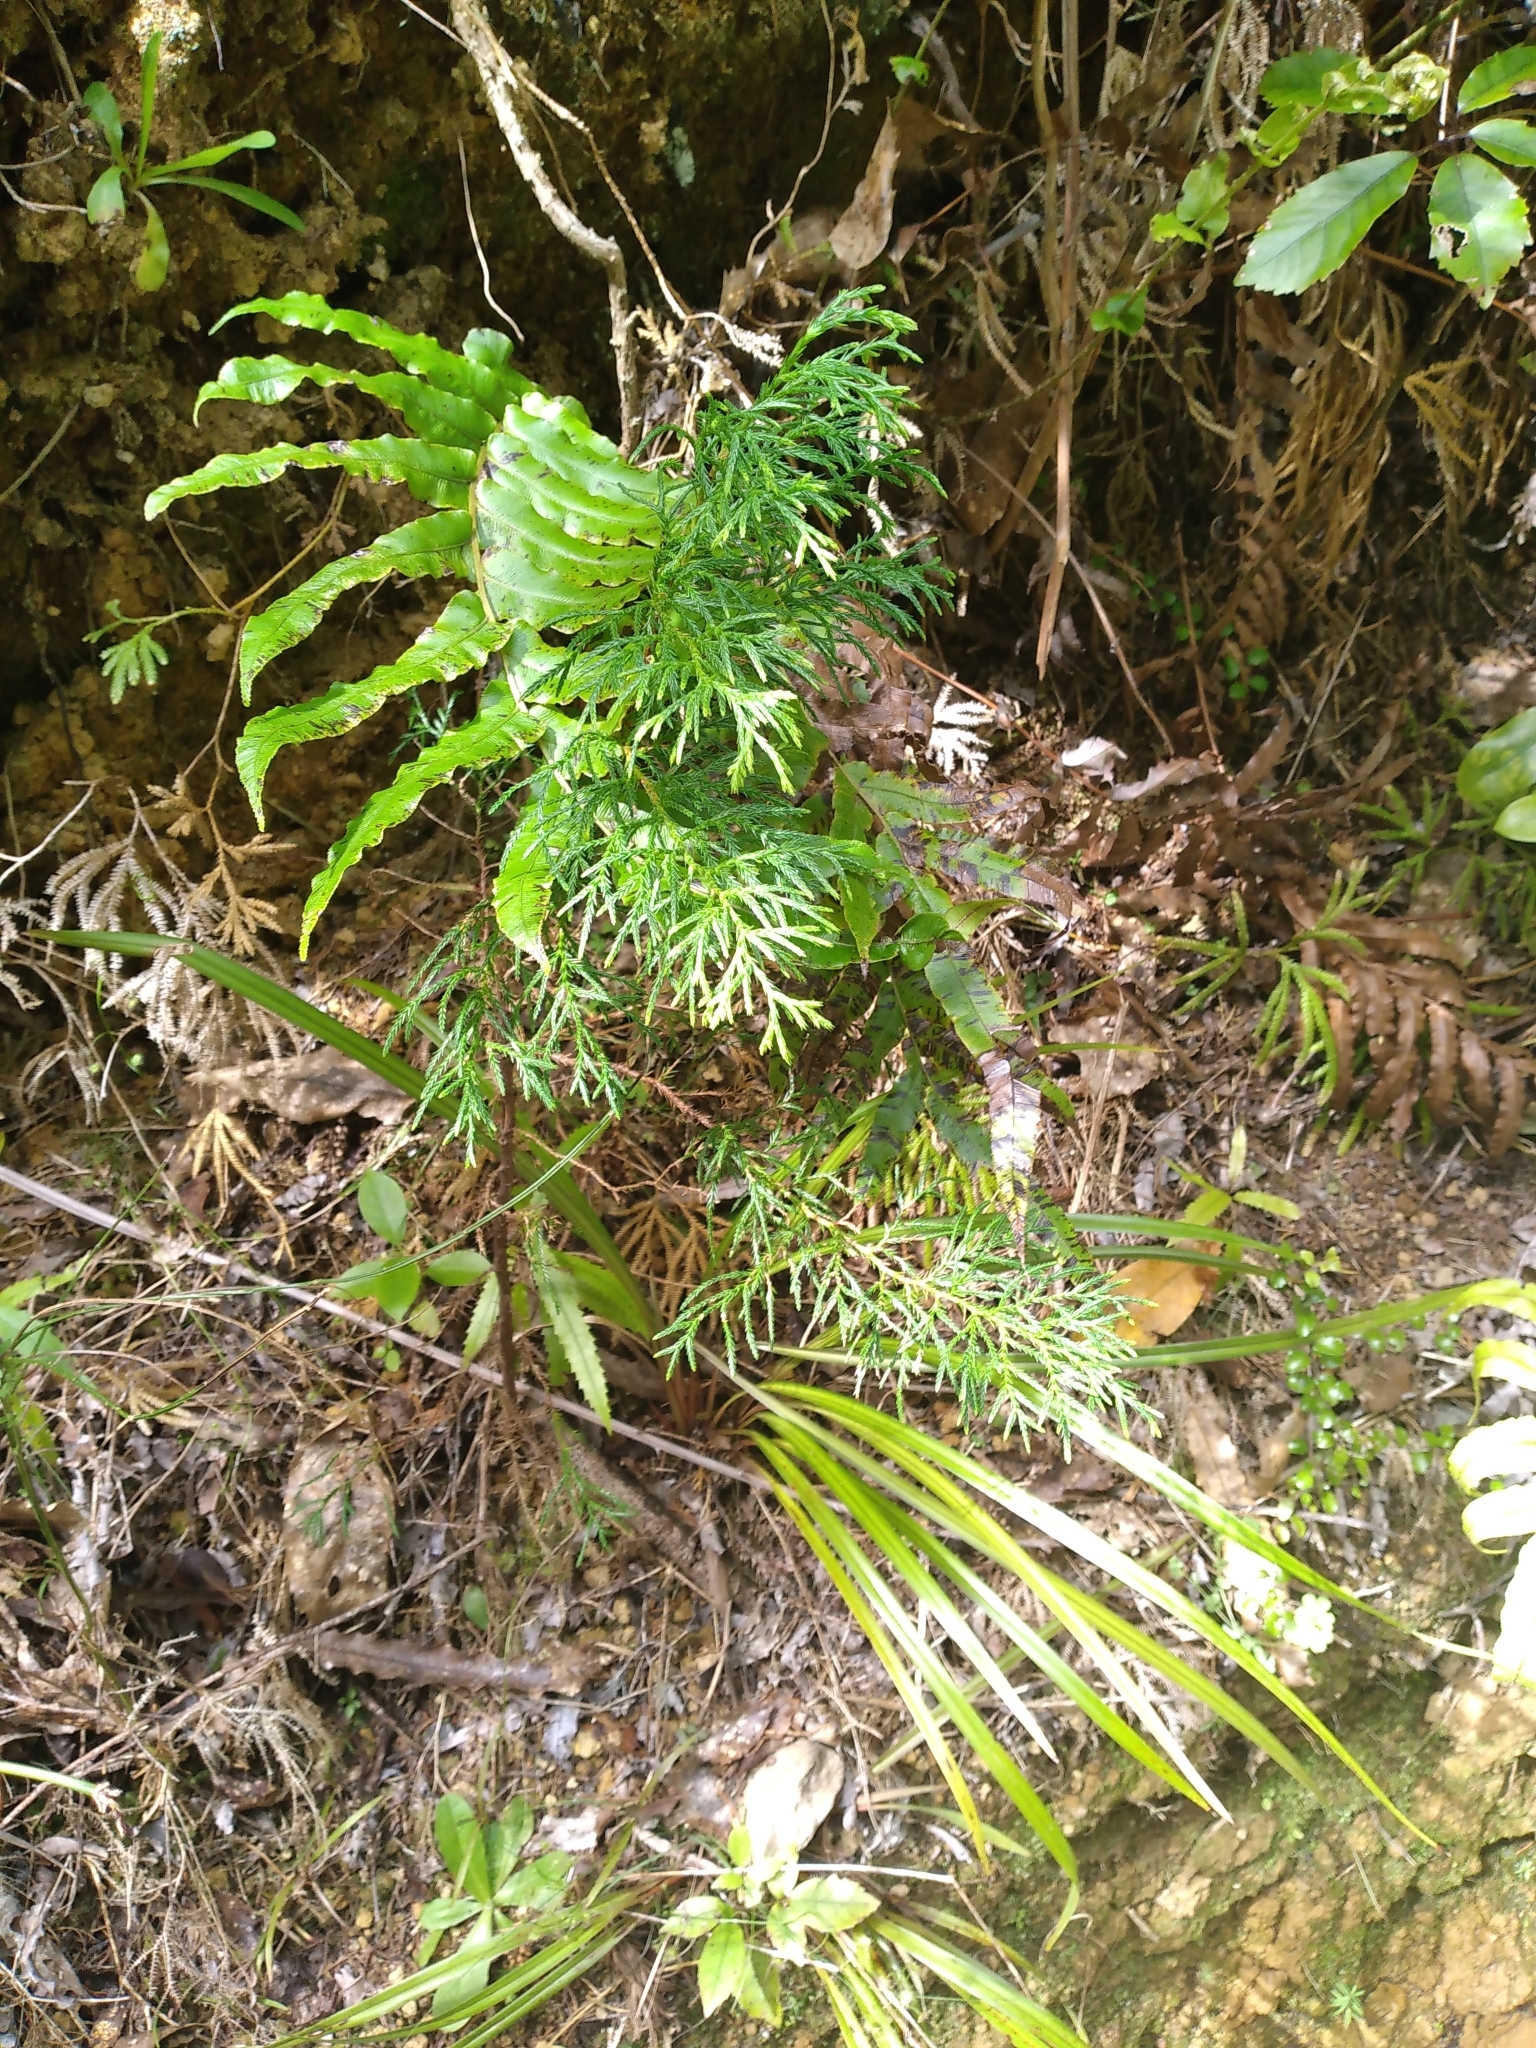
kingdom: Plantae
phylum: Tracheophyta
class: Pinopsida
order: Pinales
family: Cupressaceae
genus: Cupressus
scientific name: Cupressus macrocarpa
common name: Monterey cypress
